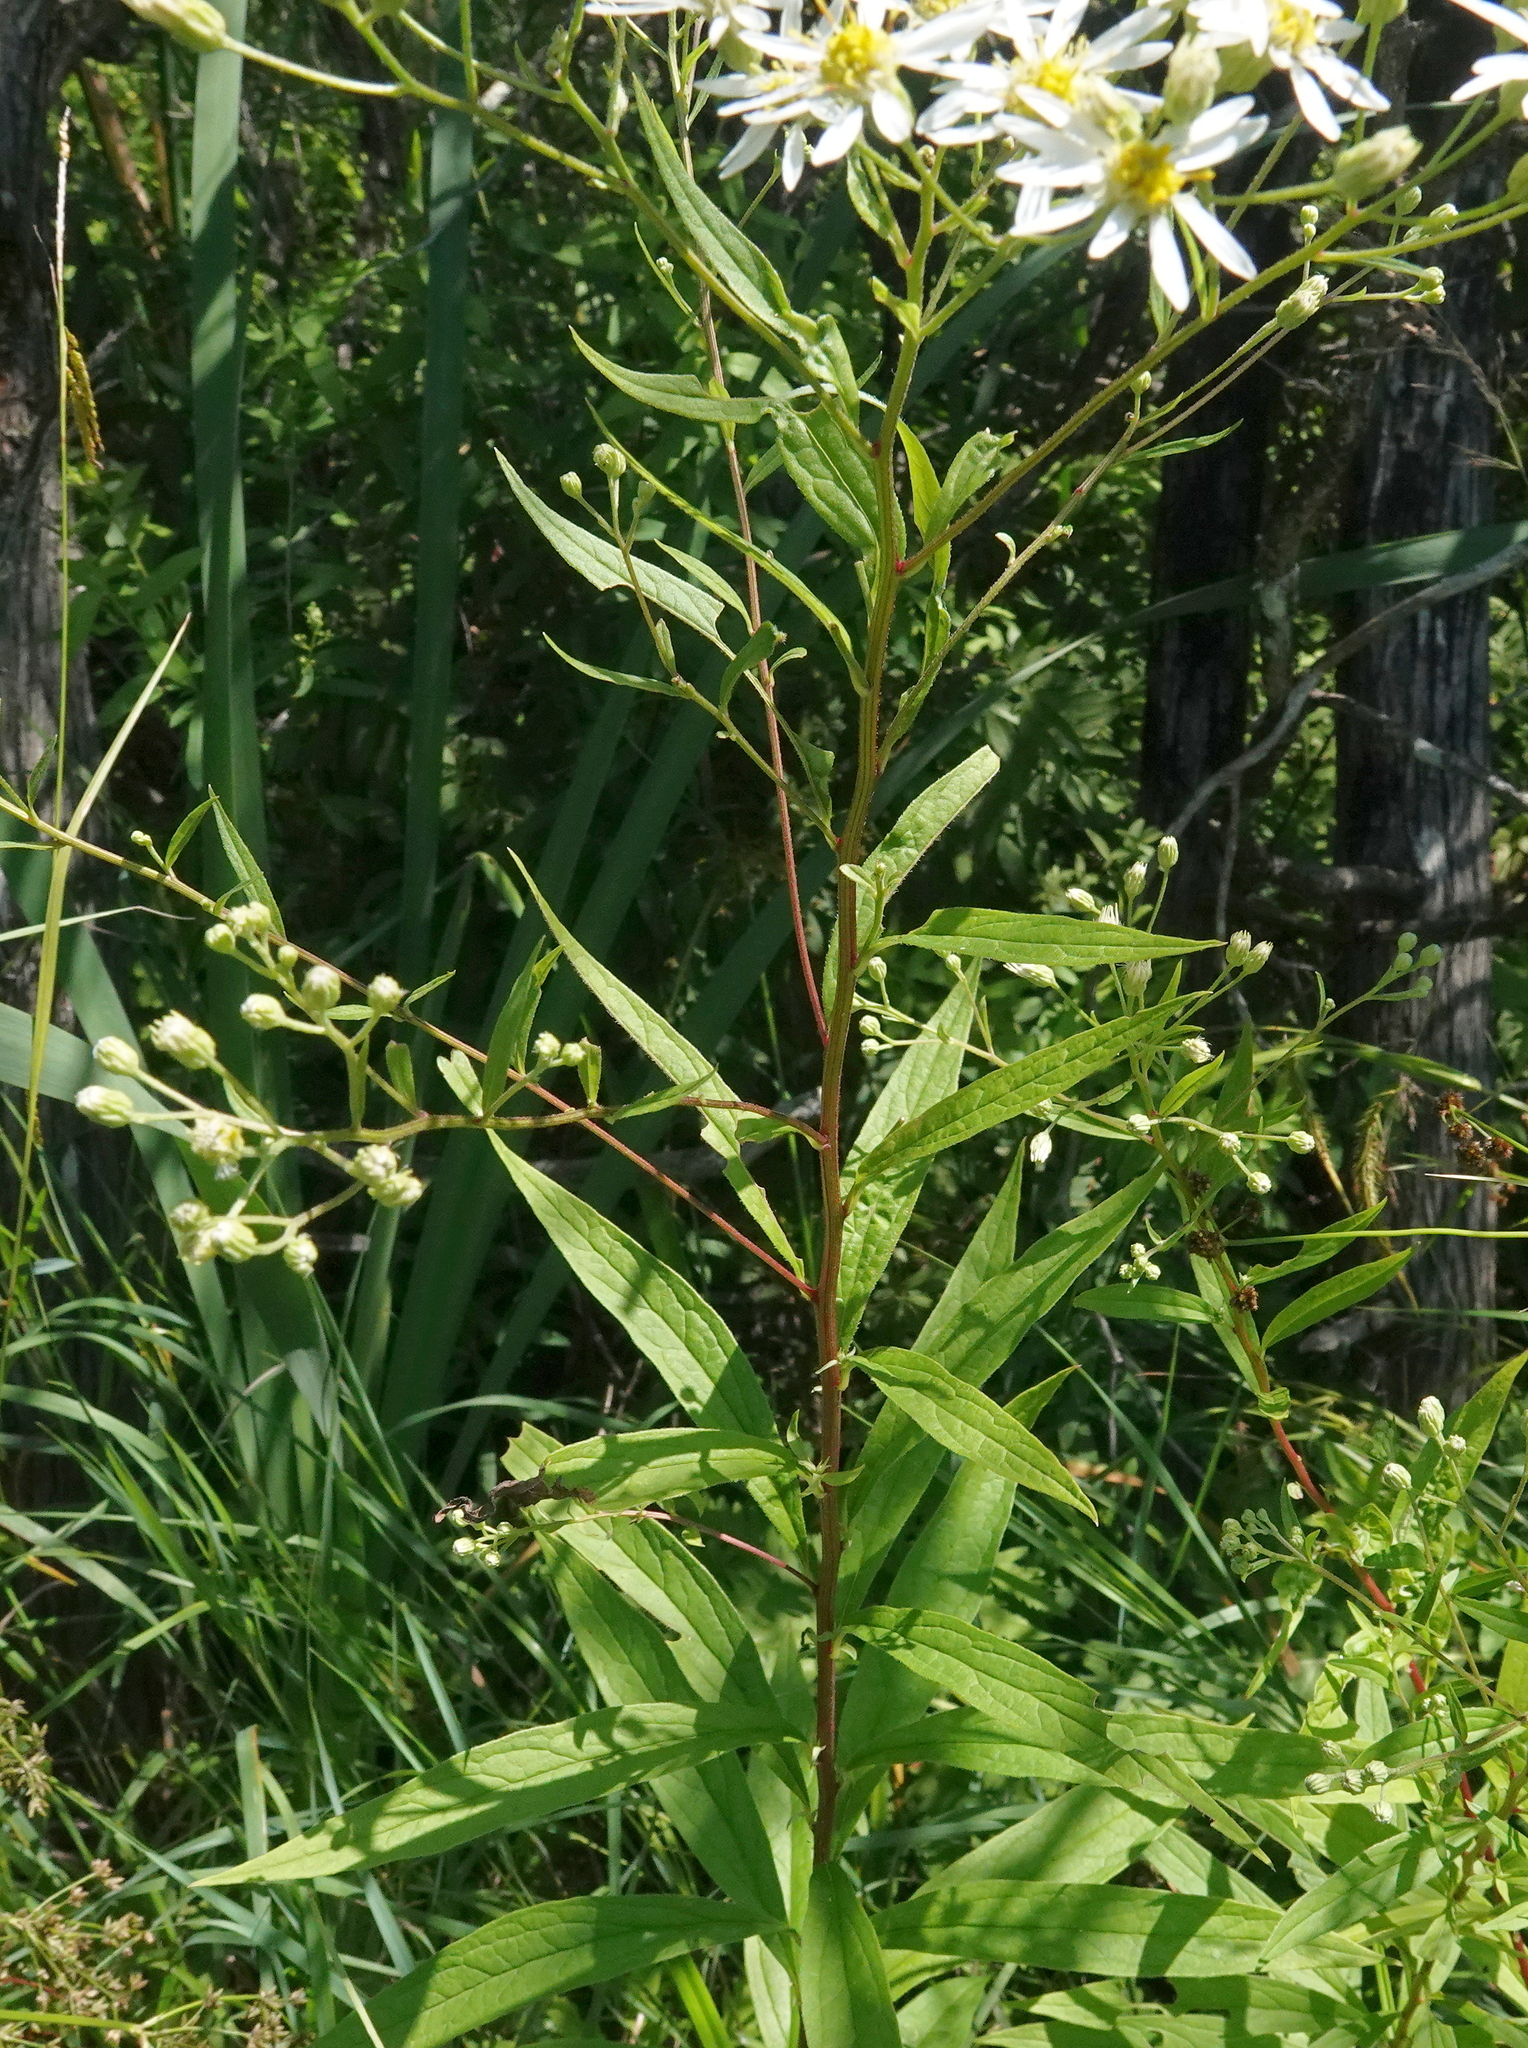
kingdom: Plantae
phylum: Tracheophyta
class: Magnoliopsida
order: Asterales
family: Asteraceae
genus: Doellingeria
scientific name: Doellingeria umbellata
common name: Flat-top white aster
